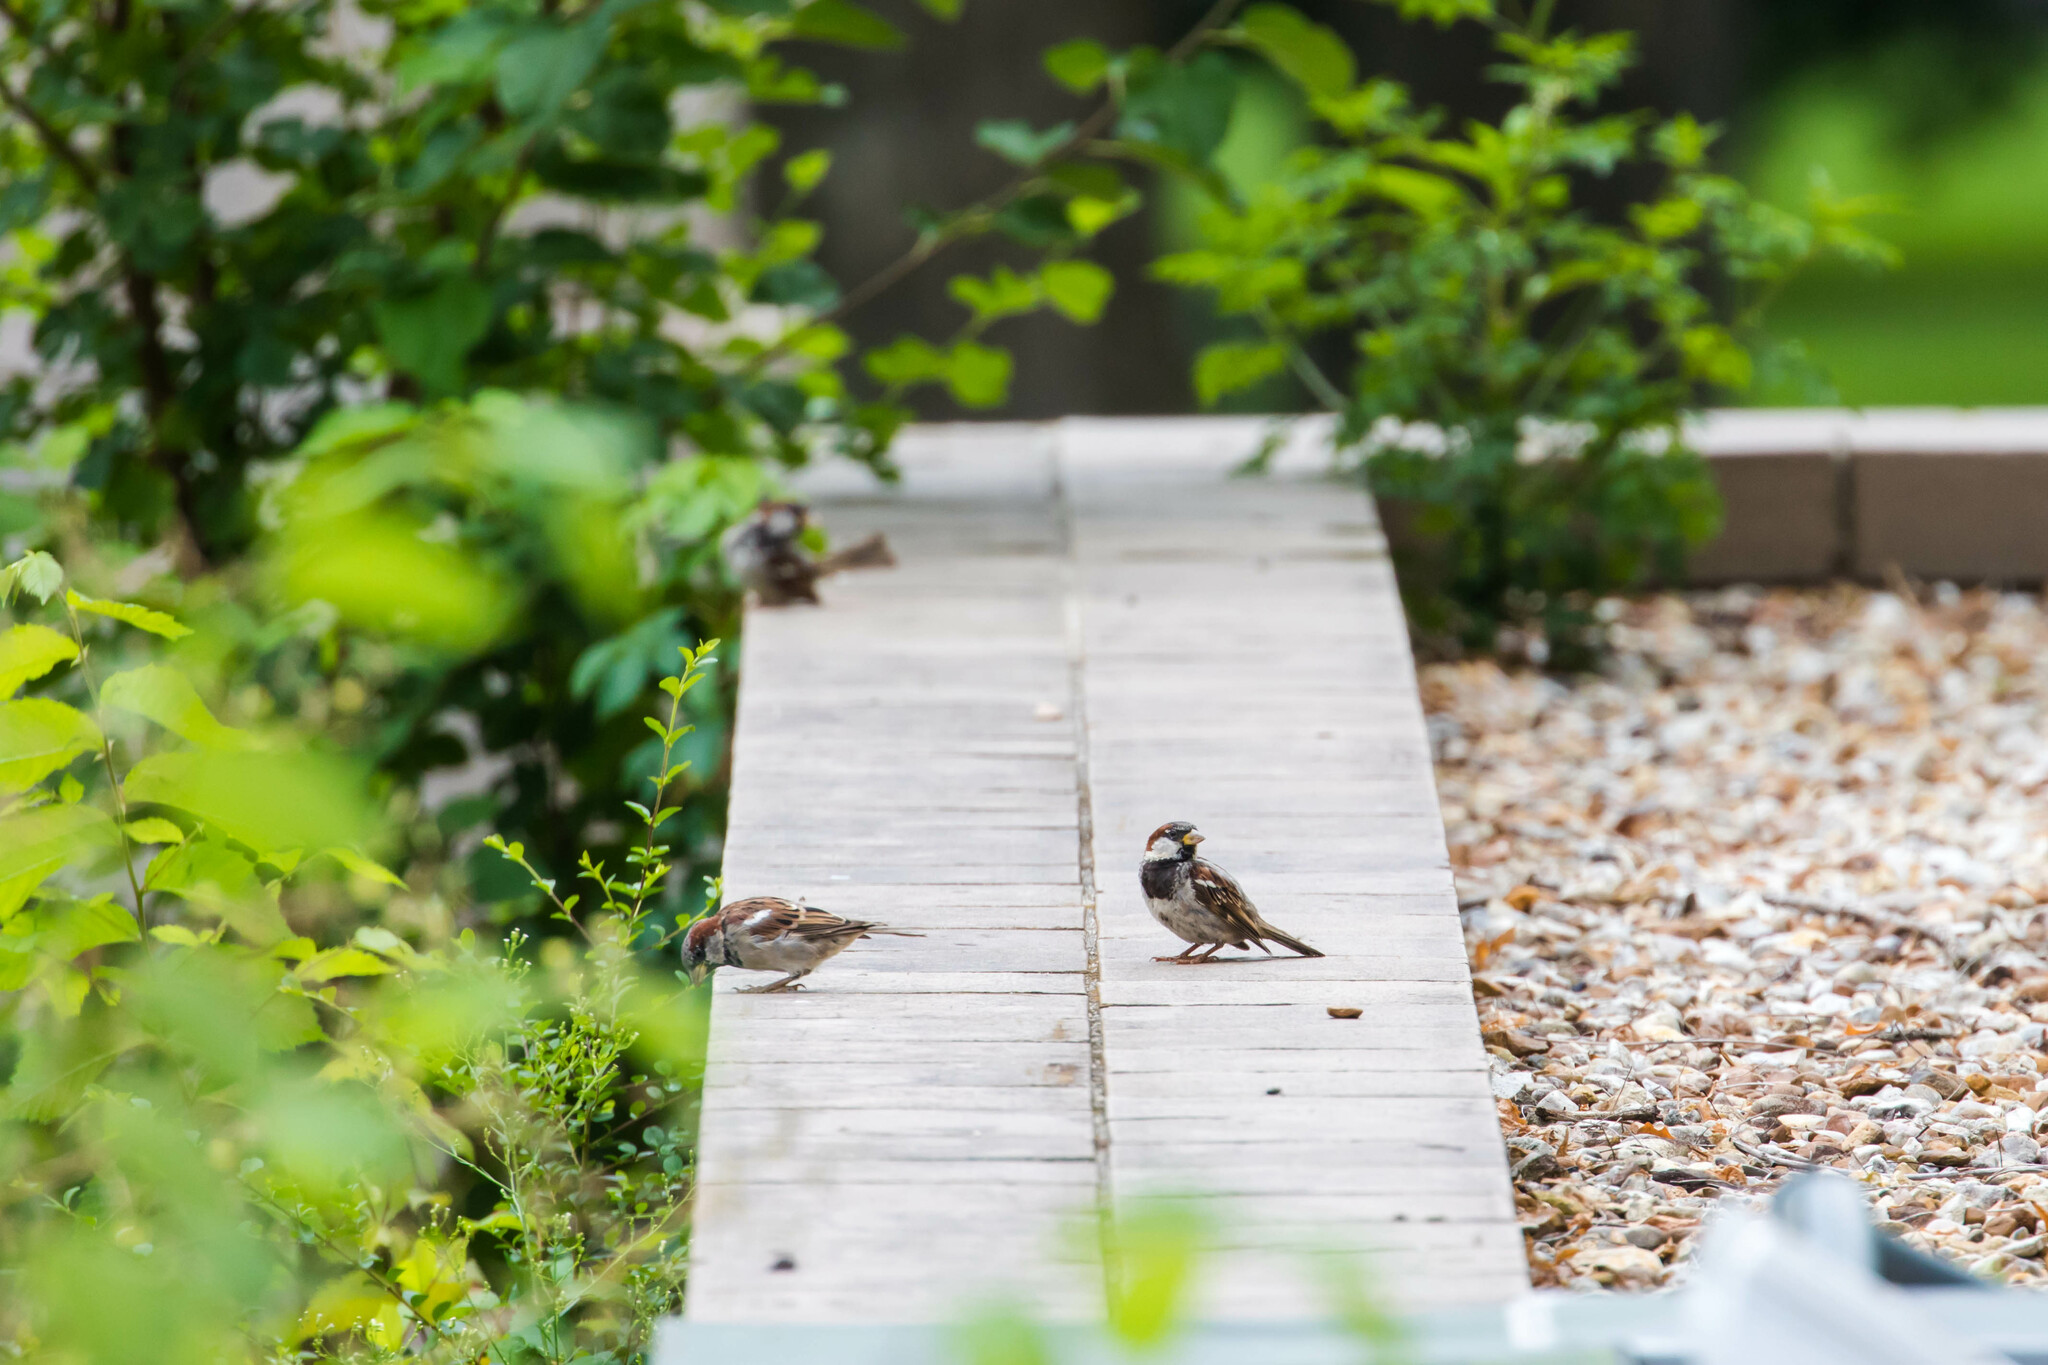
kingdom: Animalia
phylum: Chordata
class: Aves
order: Passeriformes
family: Passeridae
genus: Passer
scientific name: Passer domesticus
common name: House sparrow
